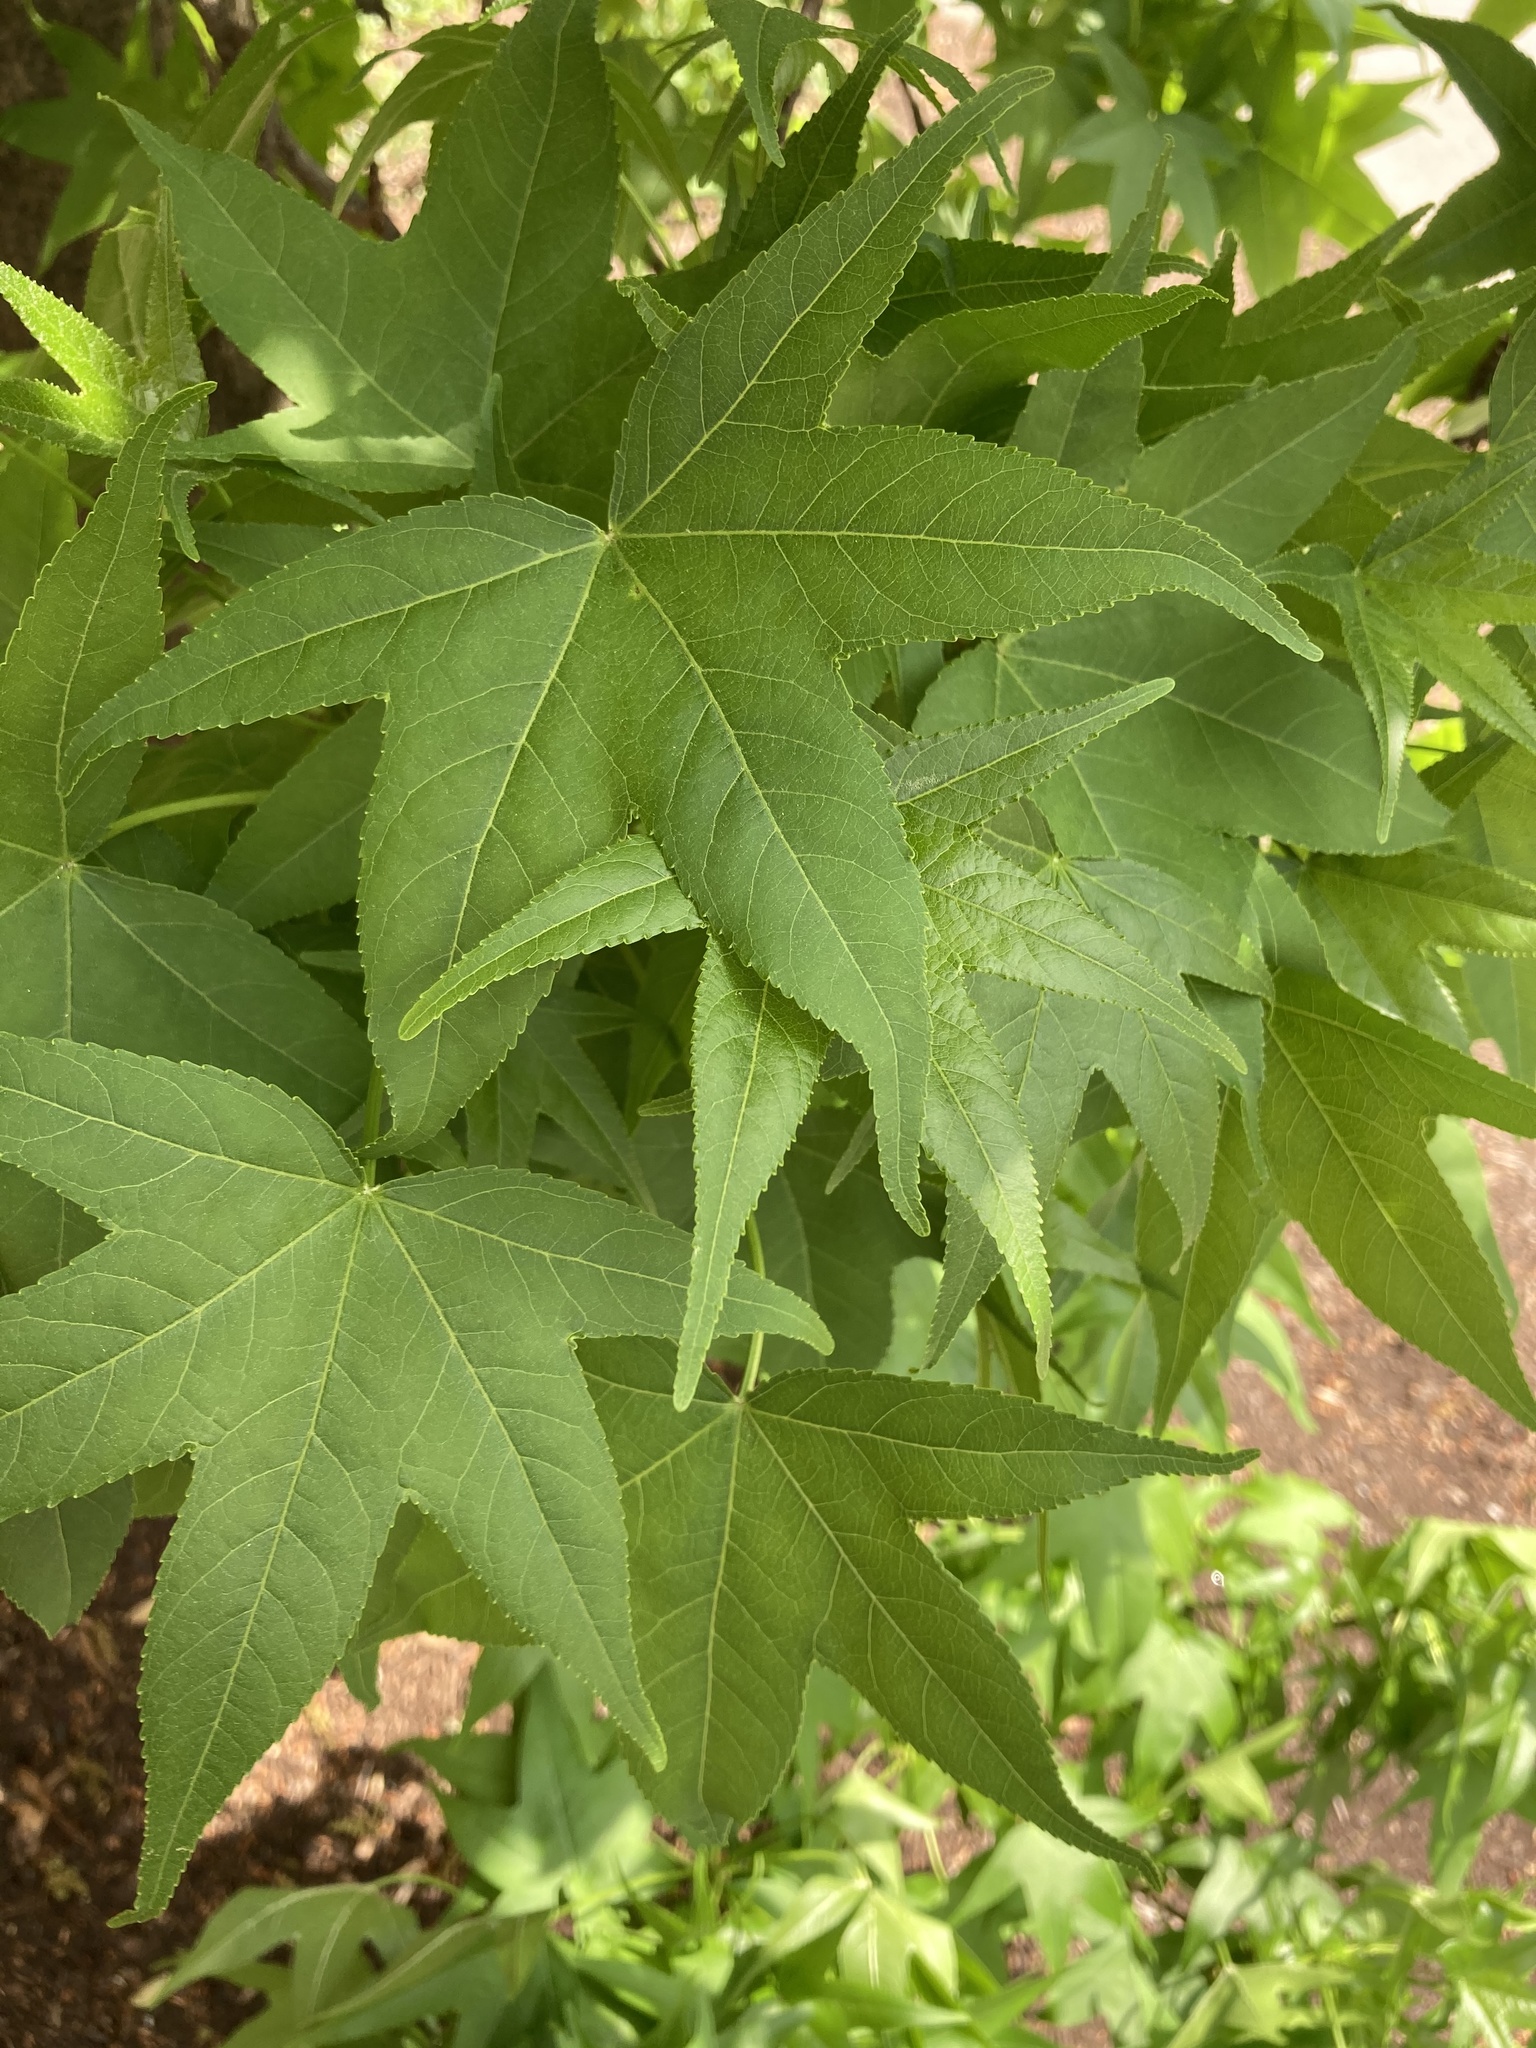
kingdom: Plantae
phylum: Tracheophyta
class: Magnoliopsida
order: Saxifragales
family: Altingiaceae
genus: Liquidambar
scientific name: Liquidambar styraciflua
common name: Sweet gum
